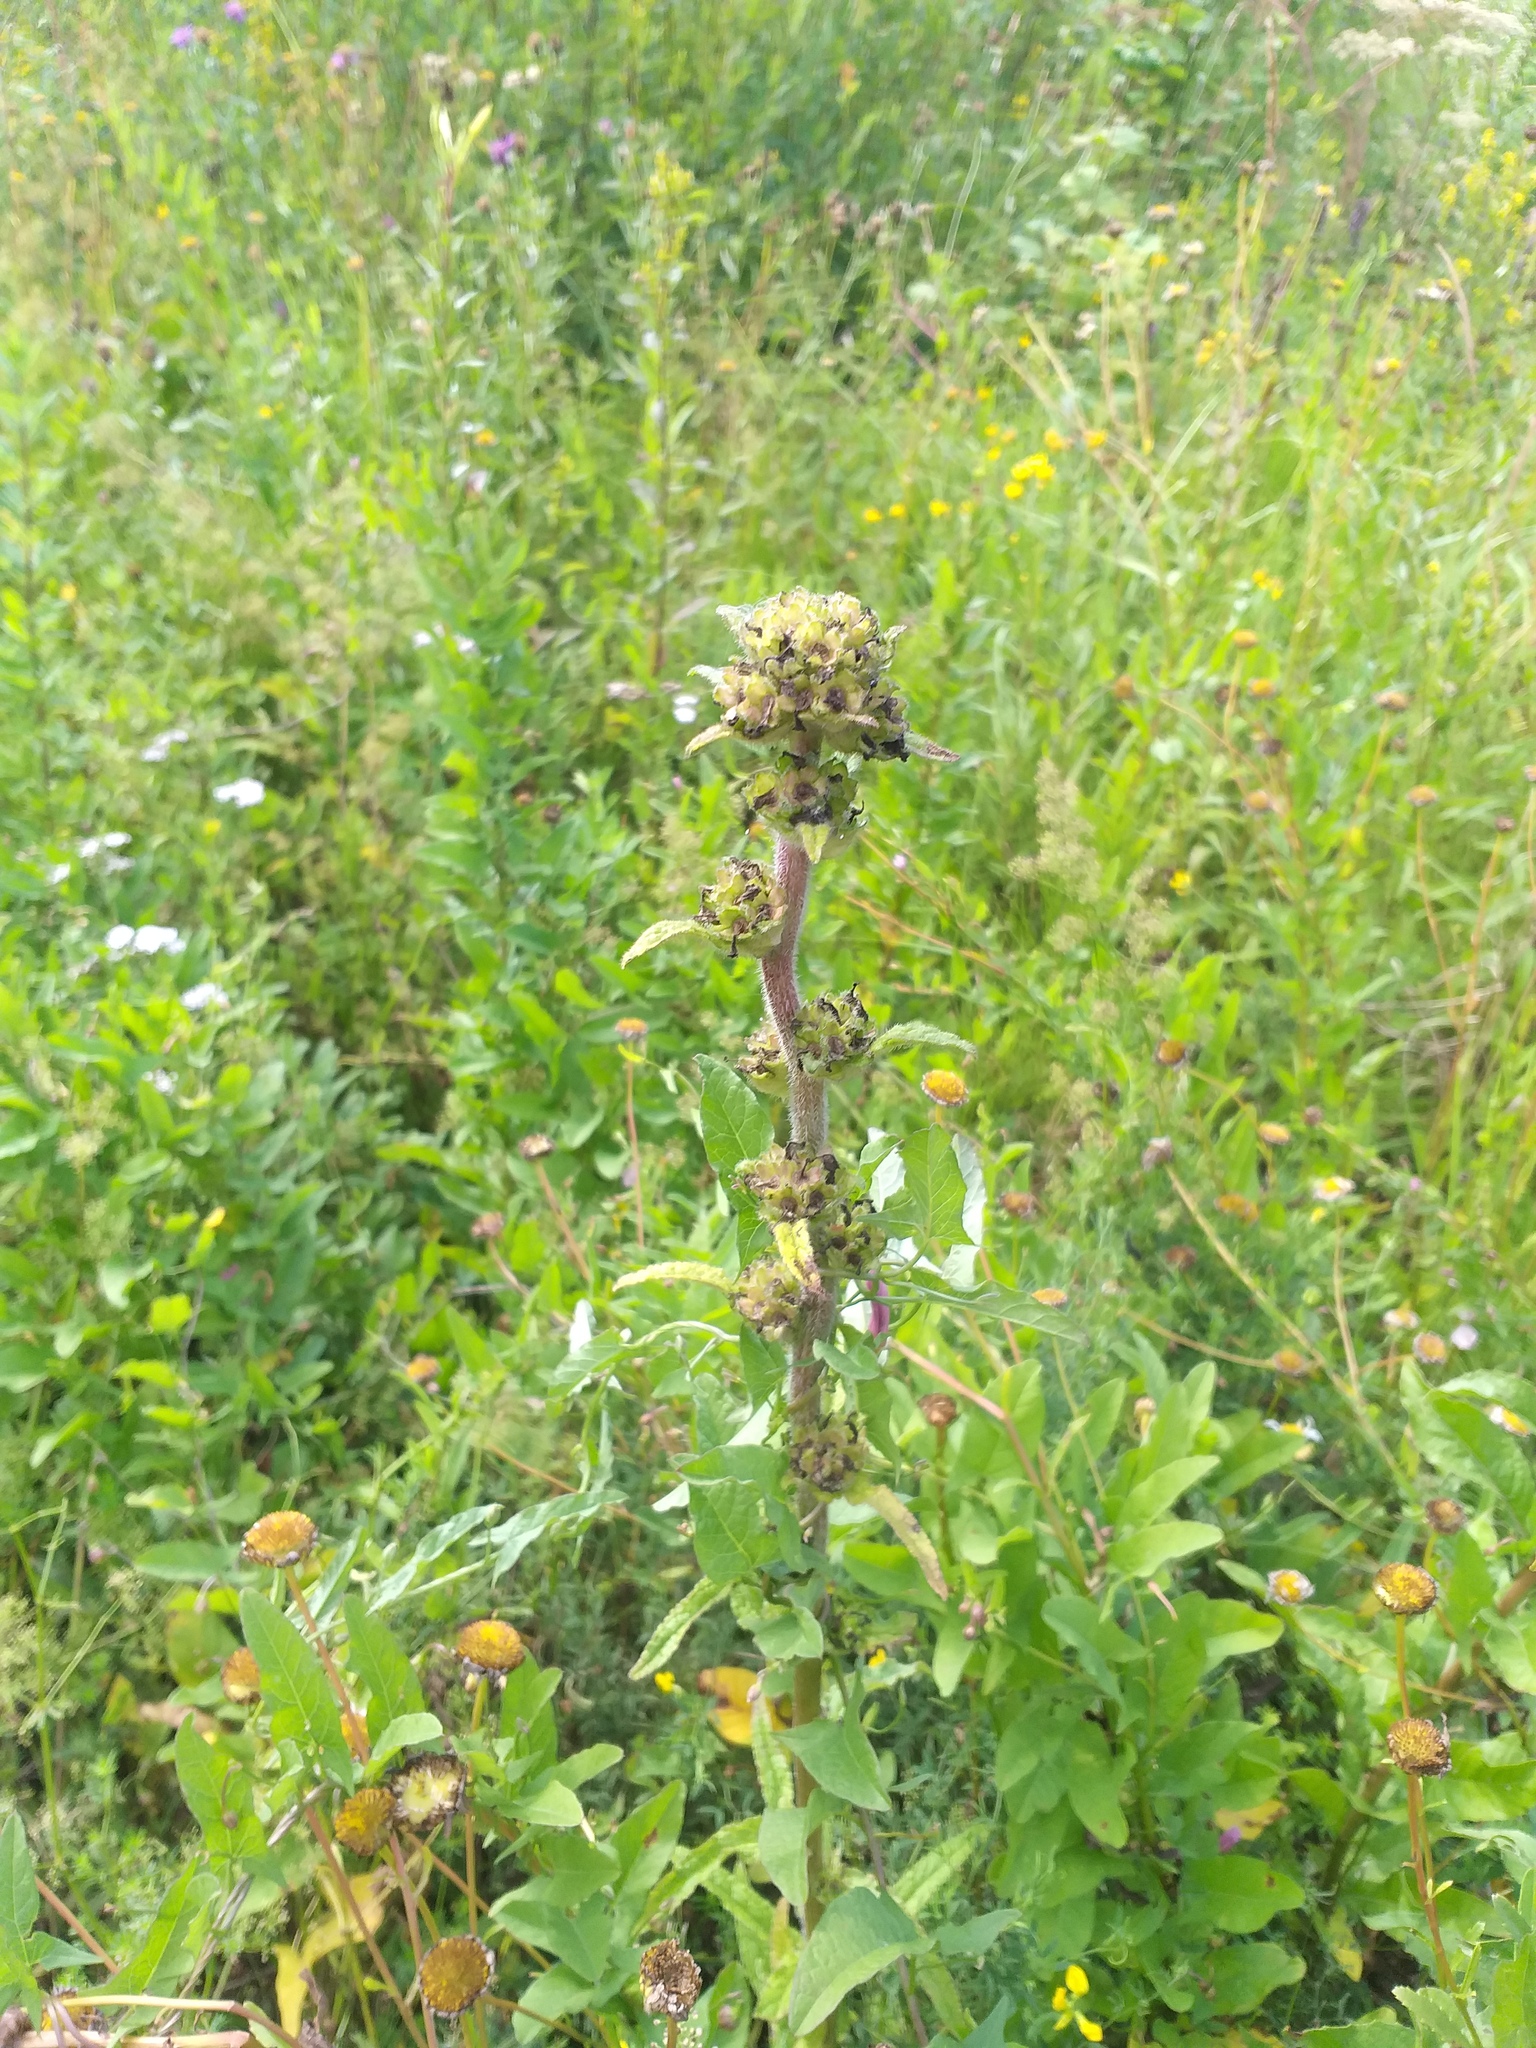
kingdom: Plantae
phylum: Tracheophyta
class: Magnoliopsida
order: Asterales
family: Campanulaceae
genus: Campanula
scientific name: Campanula cervicaria
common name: Bristly bellflower
